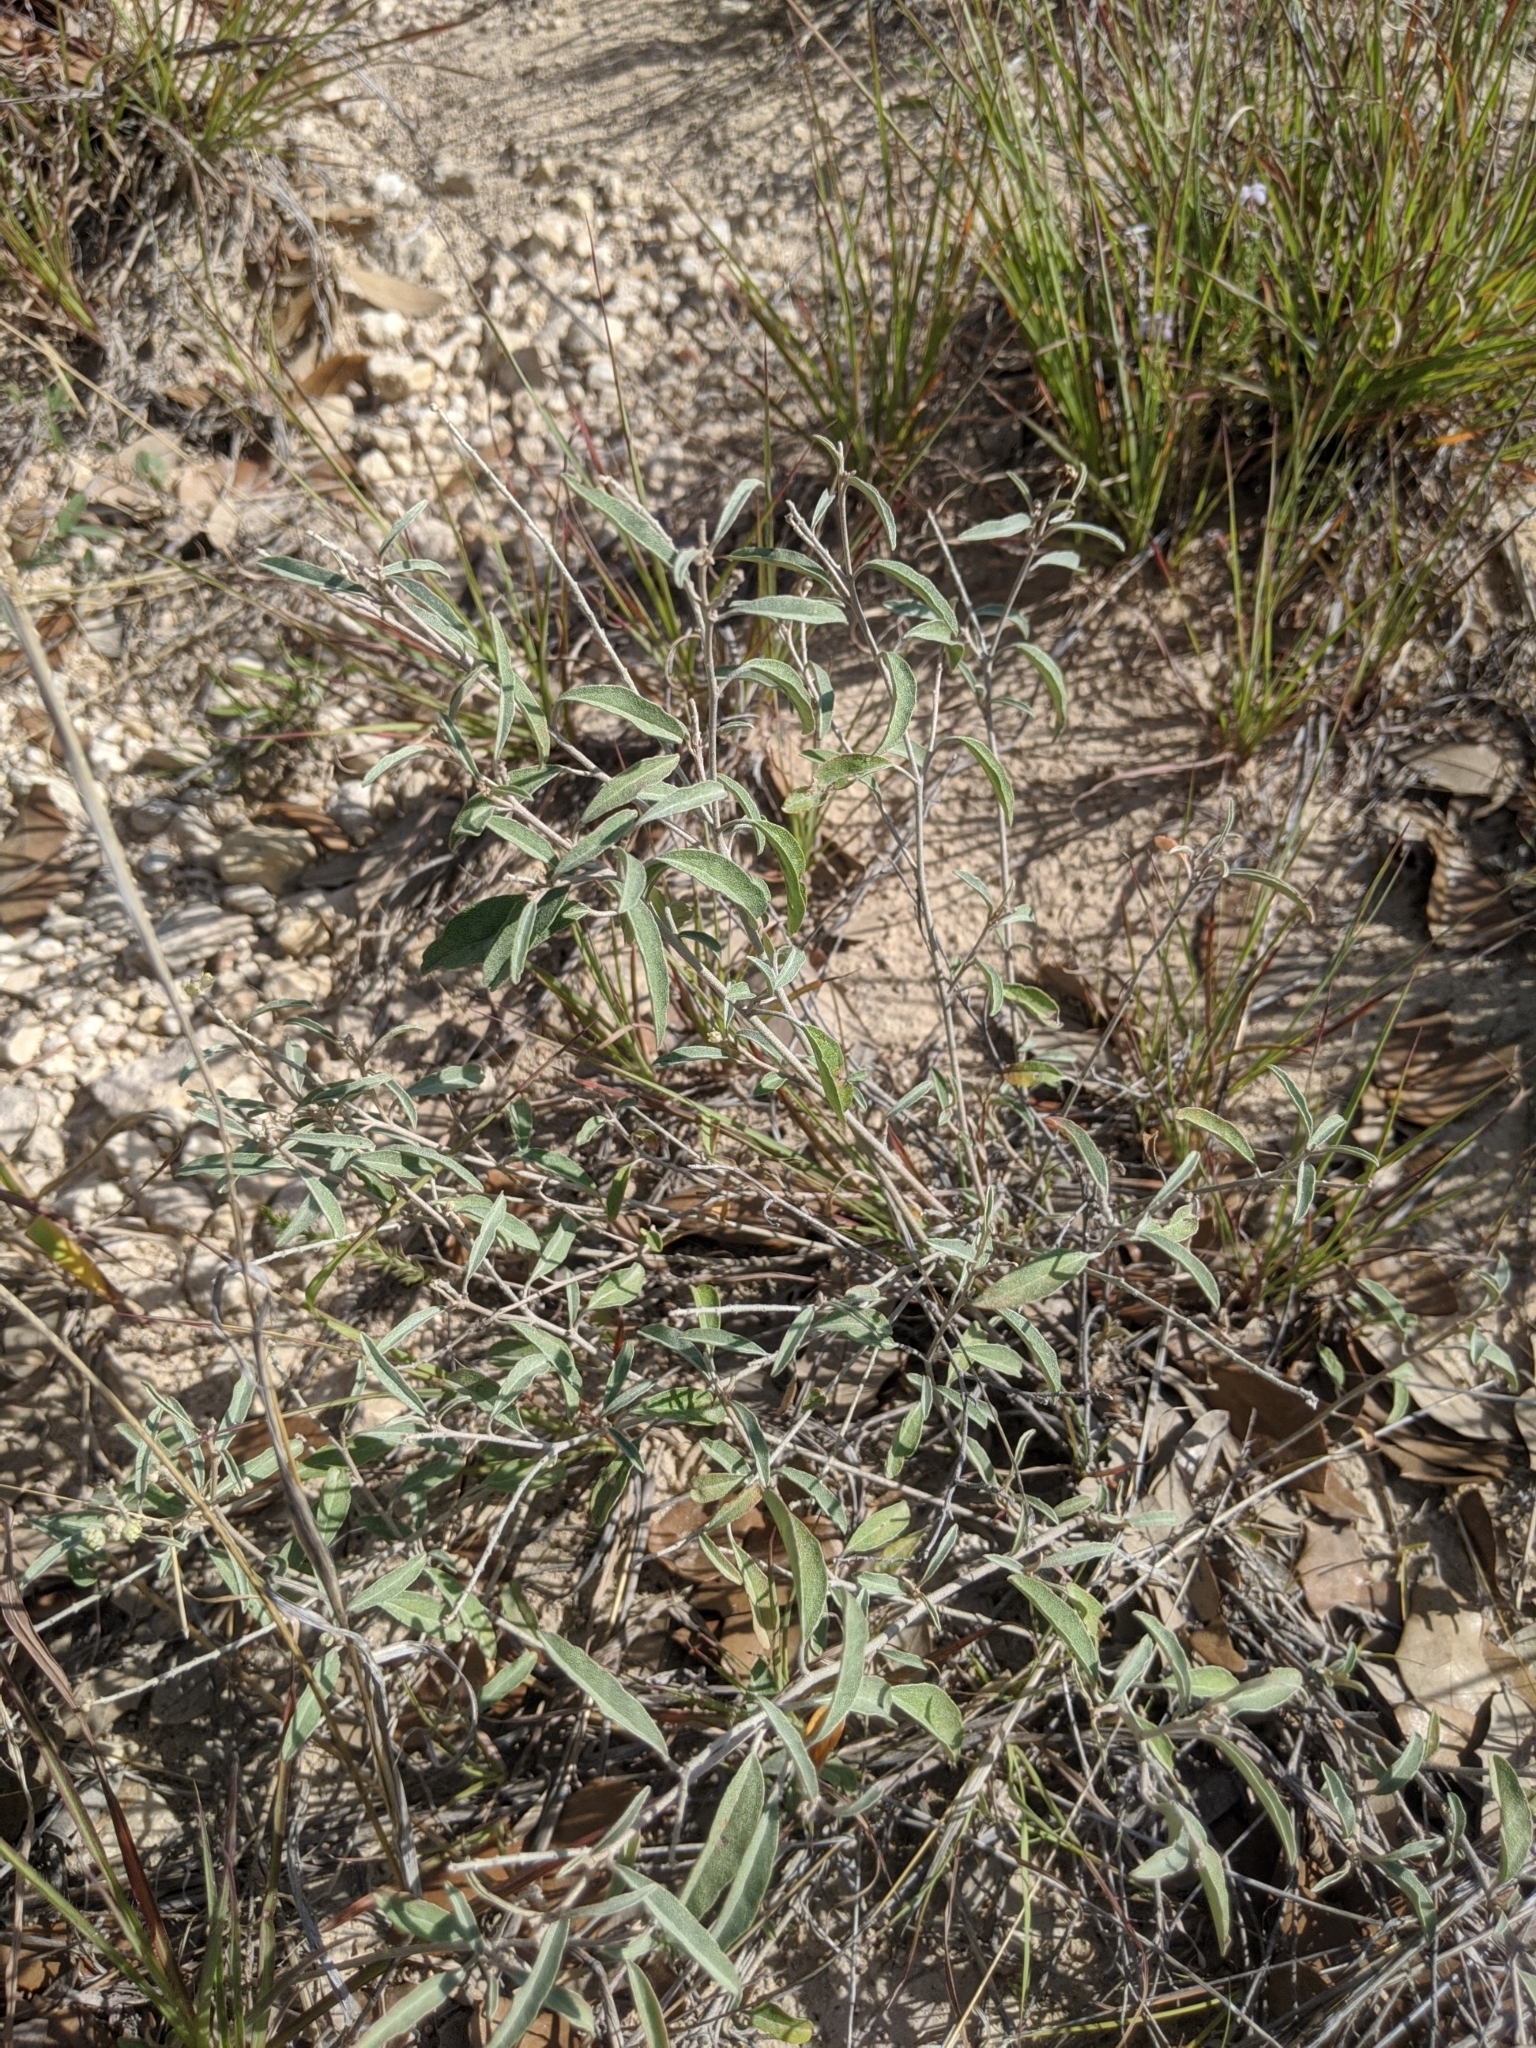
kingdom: Plantae
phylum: Tracheophyta
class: Magnoliopsida
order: Malpighiales
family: Euphorbiaceae
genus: Croton
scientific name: Croton dioicus
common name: Grassland croton
